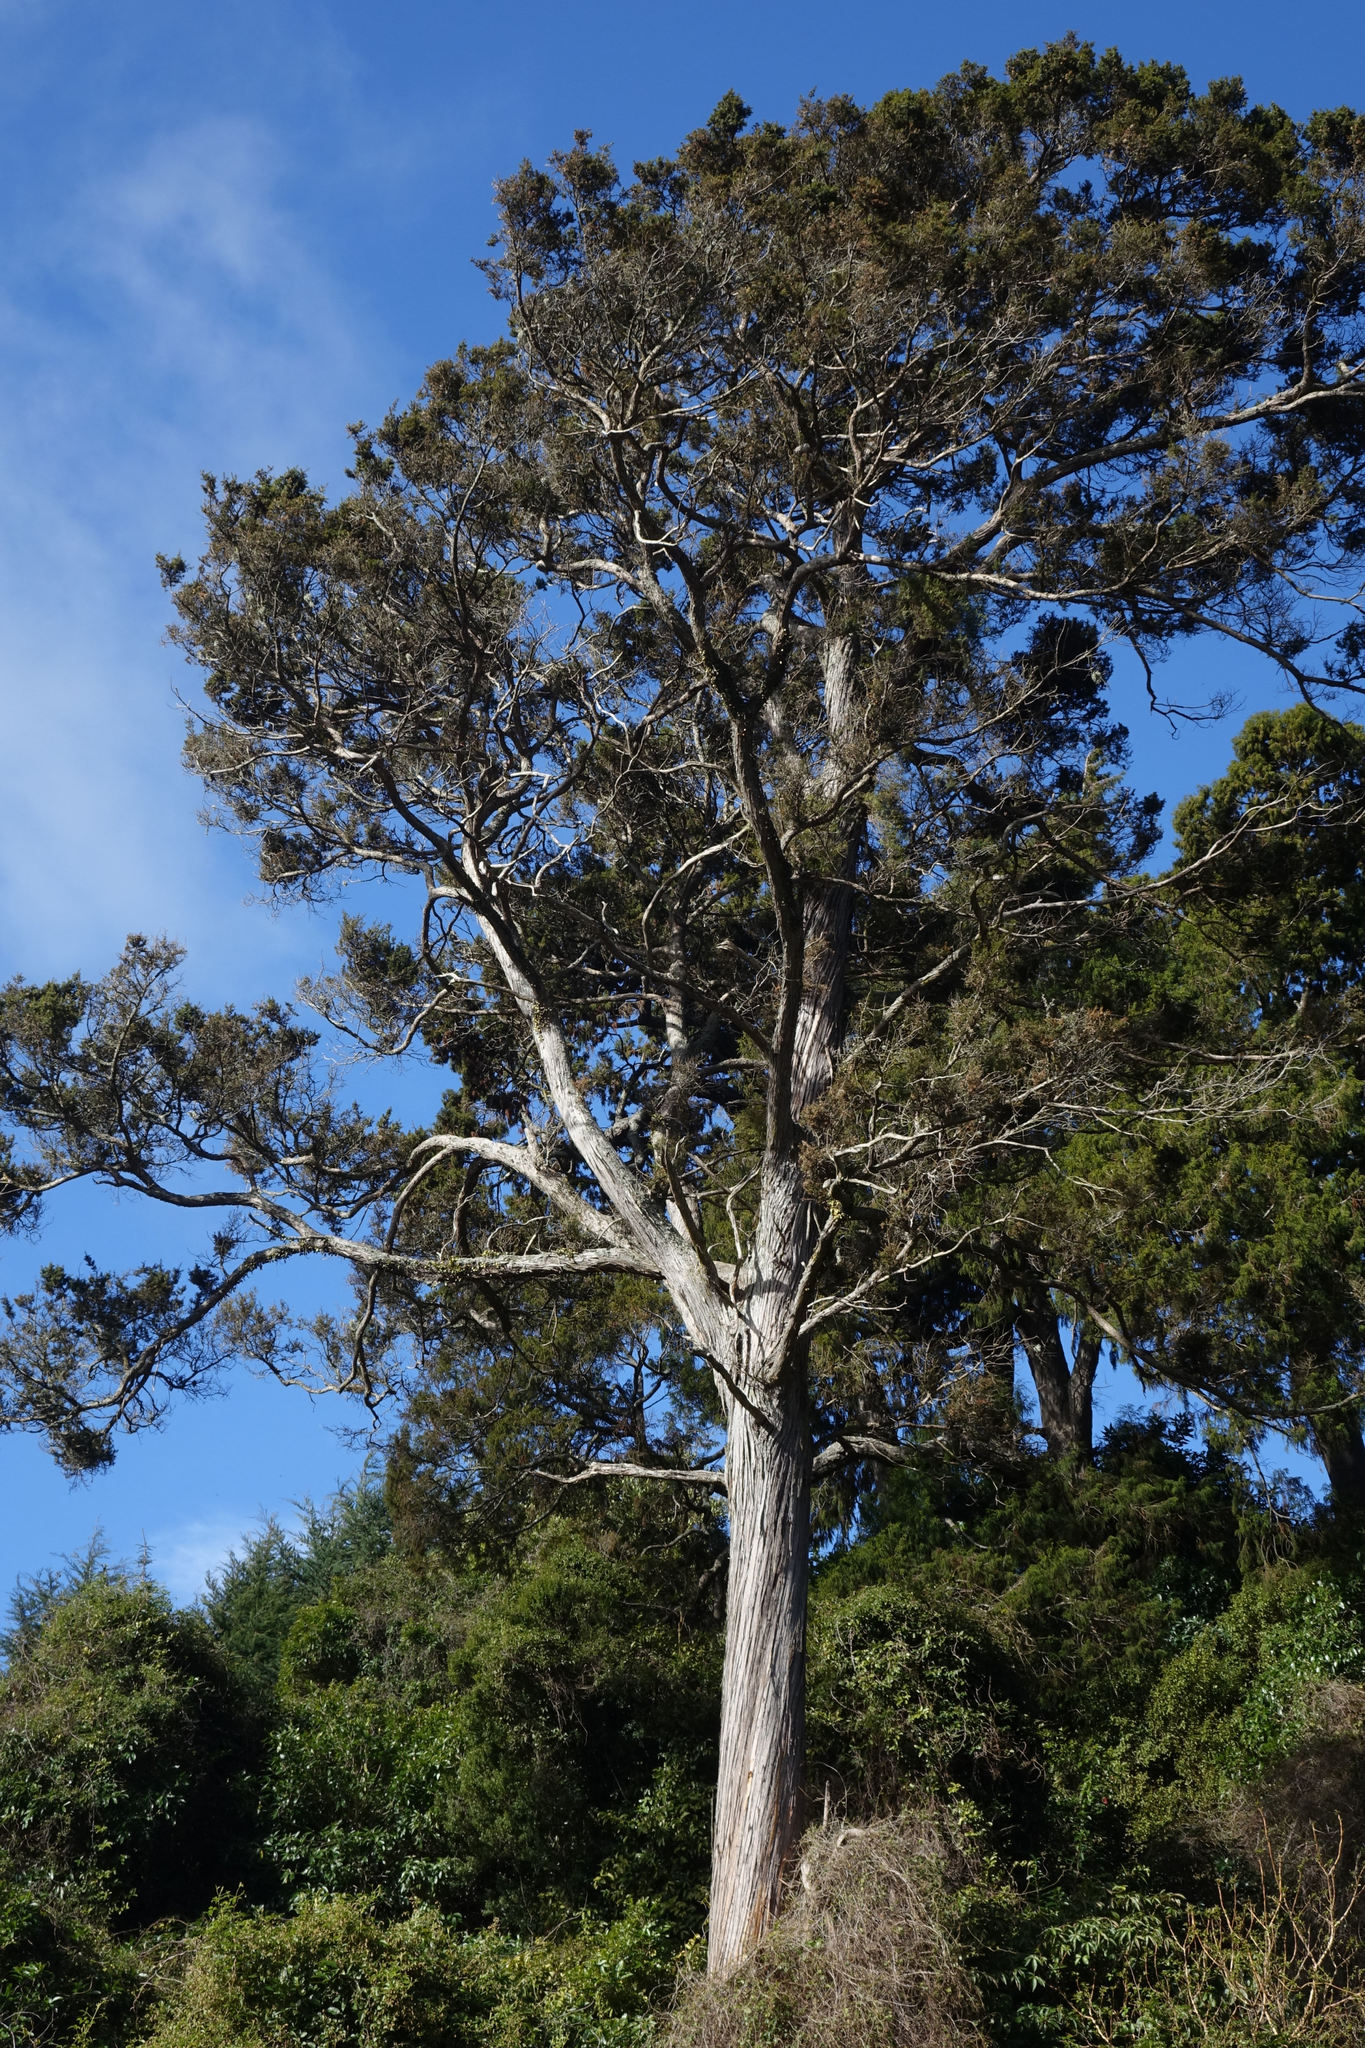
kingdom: Plantae
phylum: Tracheophyta
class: Pinopsida
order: Pinales
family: Podocarpaceae
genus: Podocarpus
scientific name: Podocarpus totara
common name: Totara
